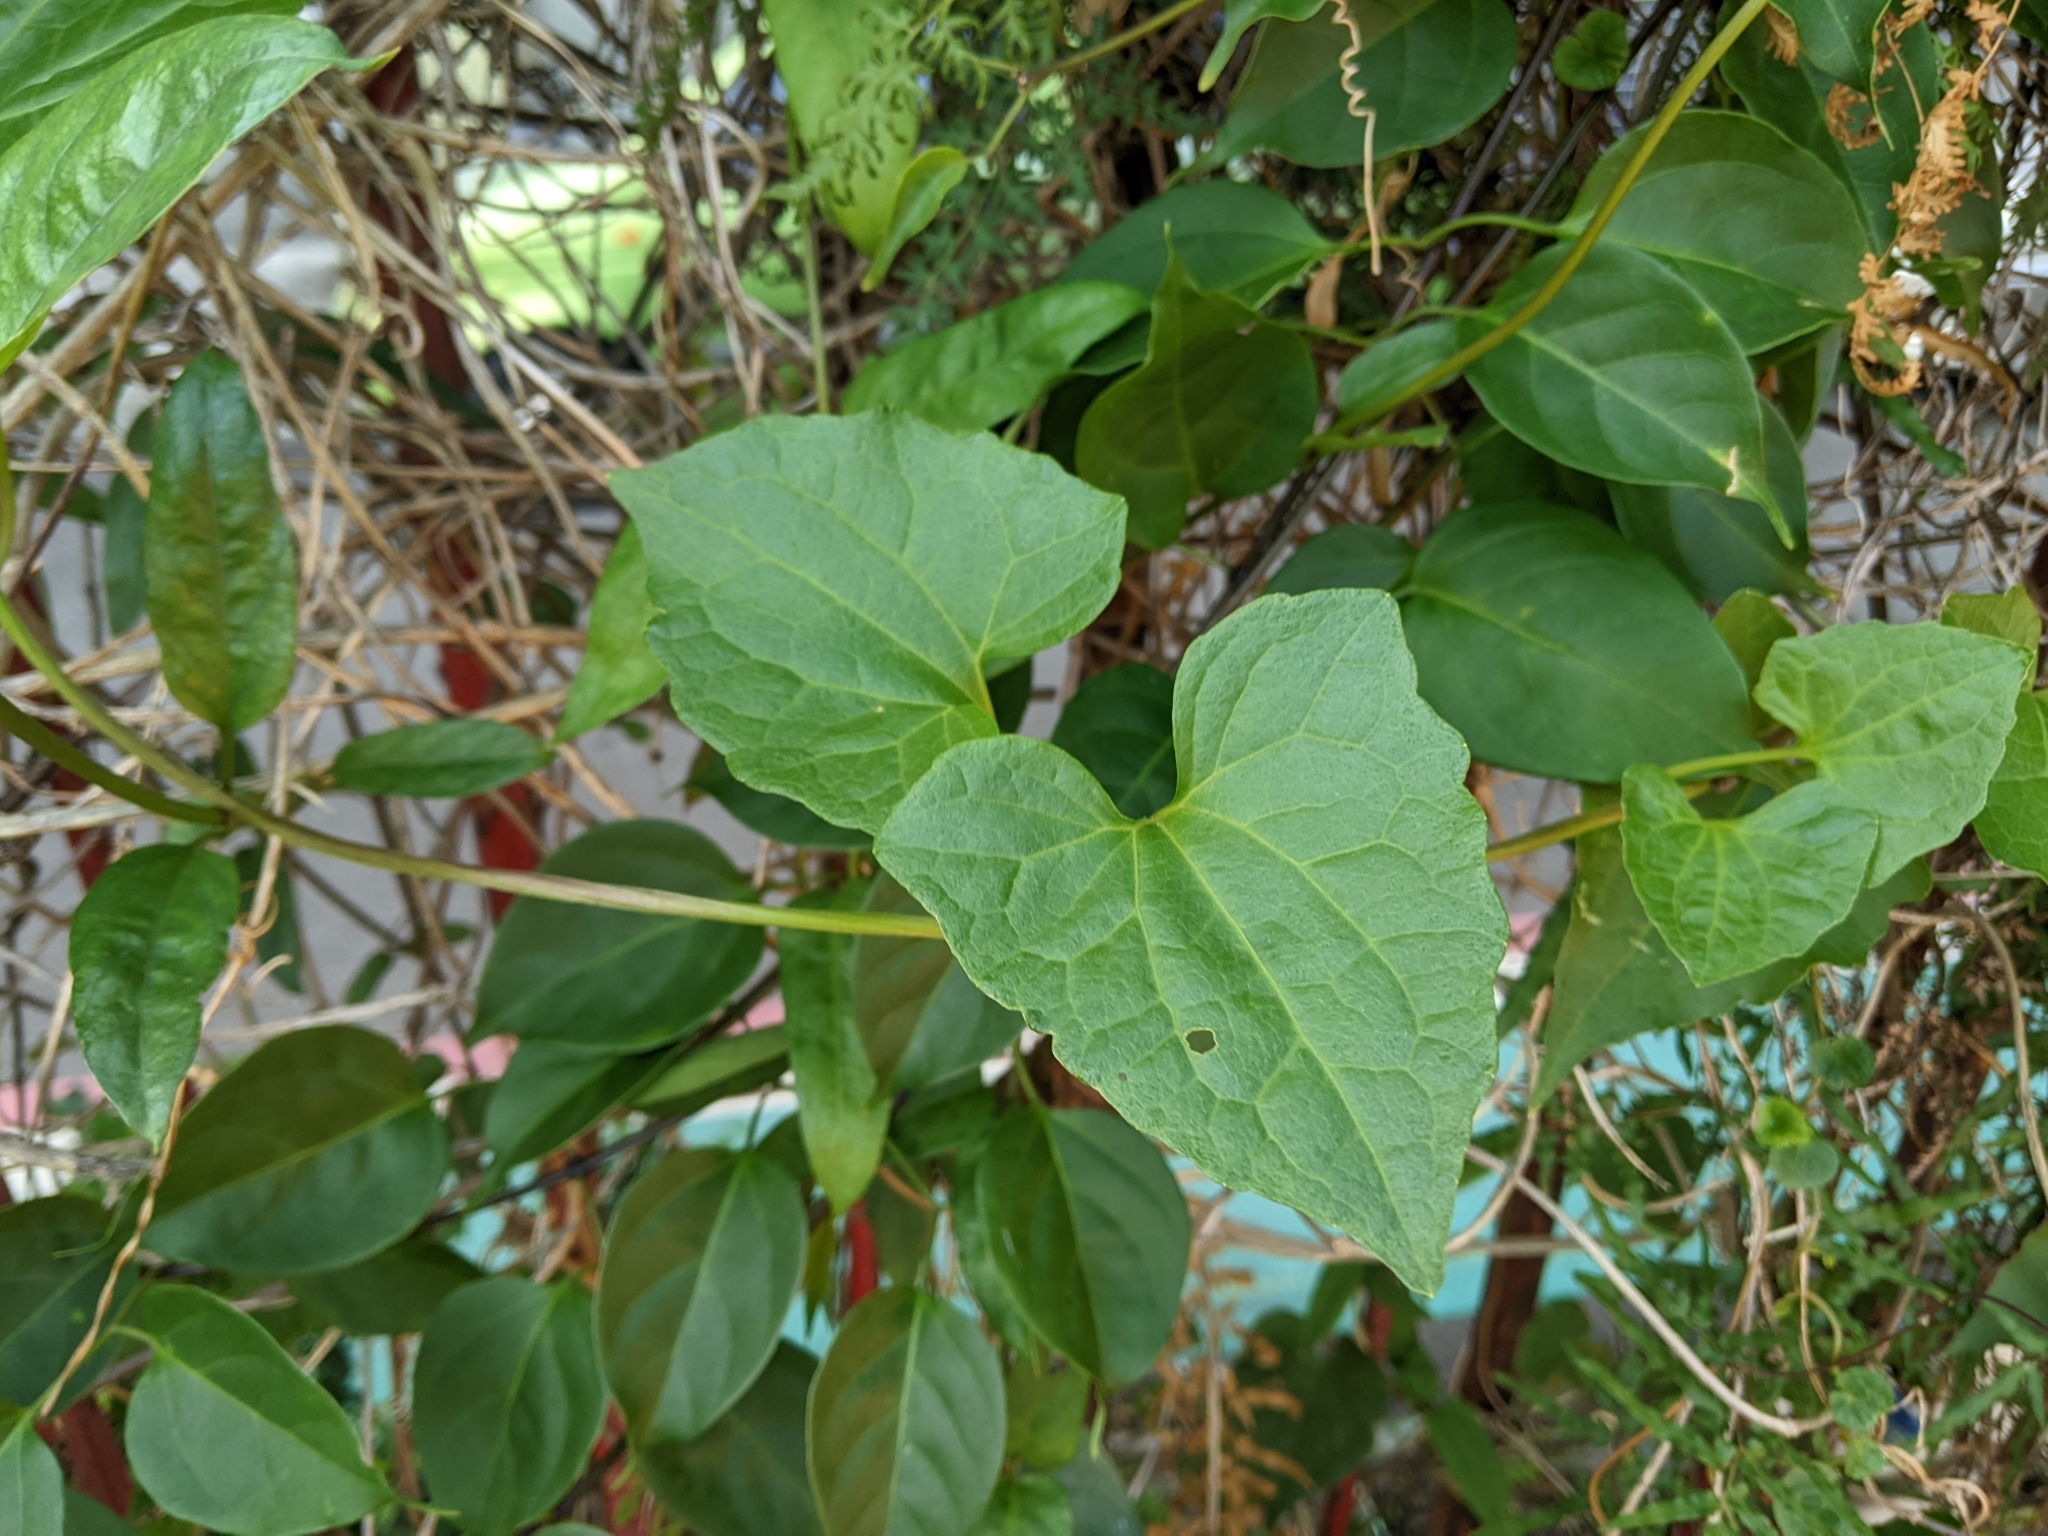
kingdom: Plantae
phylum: Tracheophyta
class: Magnoliopsida
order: Asterales
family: Asteraceae
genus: Mikania
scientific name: Mikania micrantha
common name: Mile-a-minute
